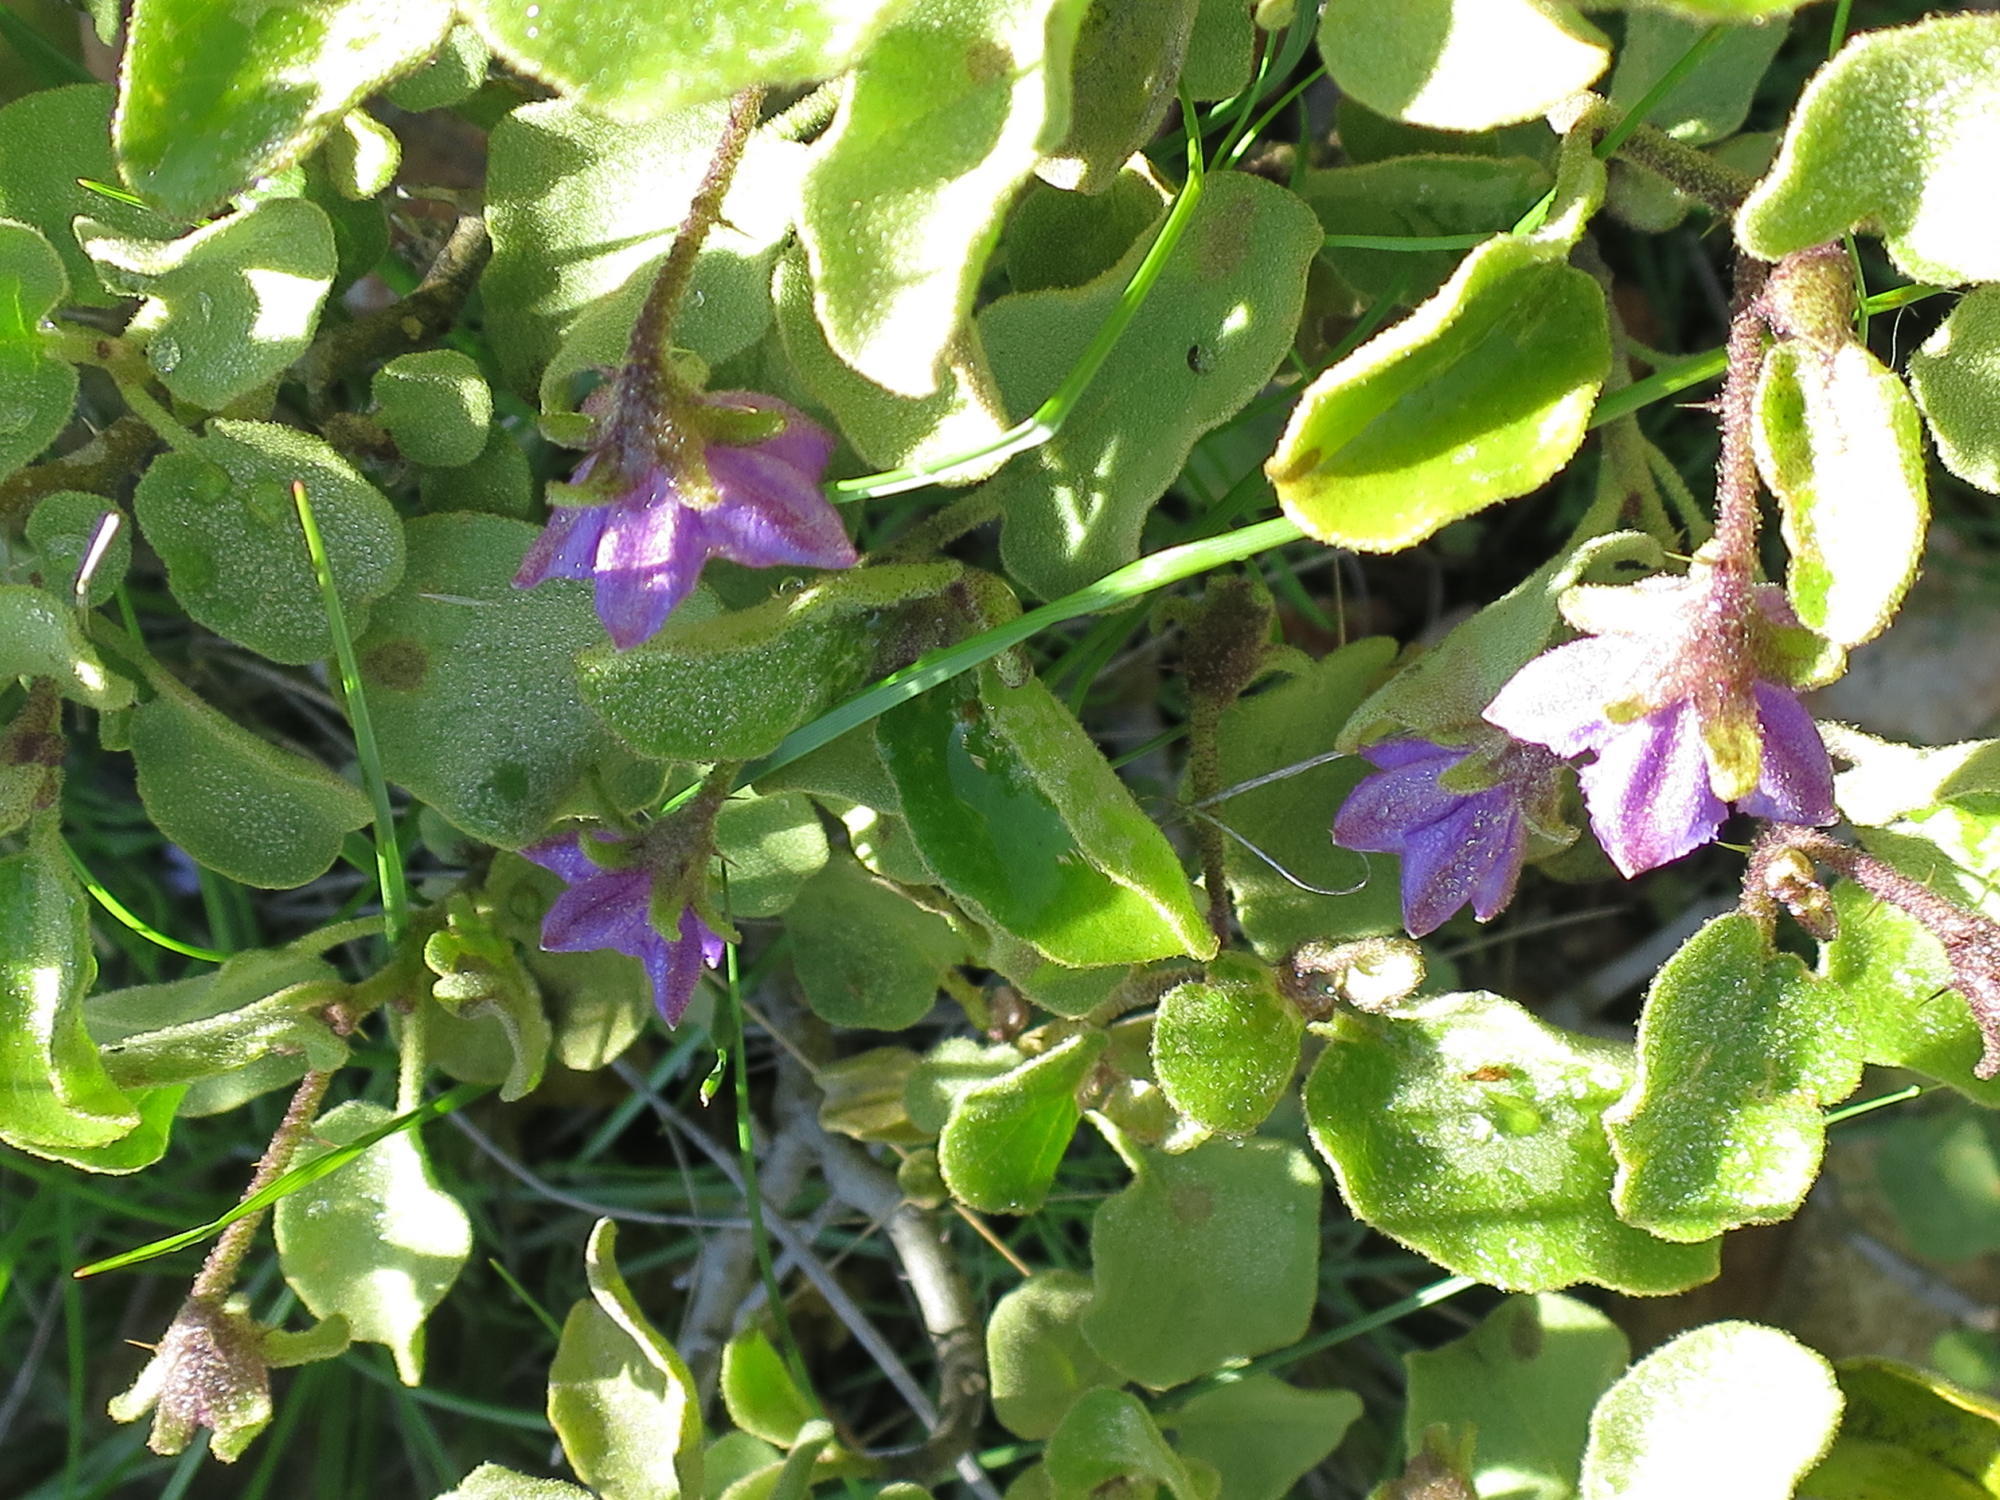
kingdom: Plantae
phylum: Tracheophyta
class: Magnoliopsida
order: Solanales
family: Solanaceae
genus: Solanum
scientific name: Solanum tomentosum
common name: Wild aubergine
